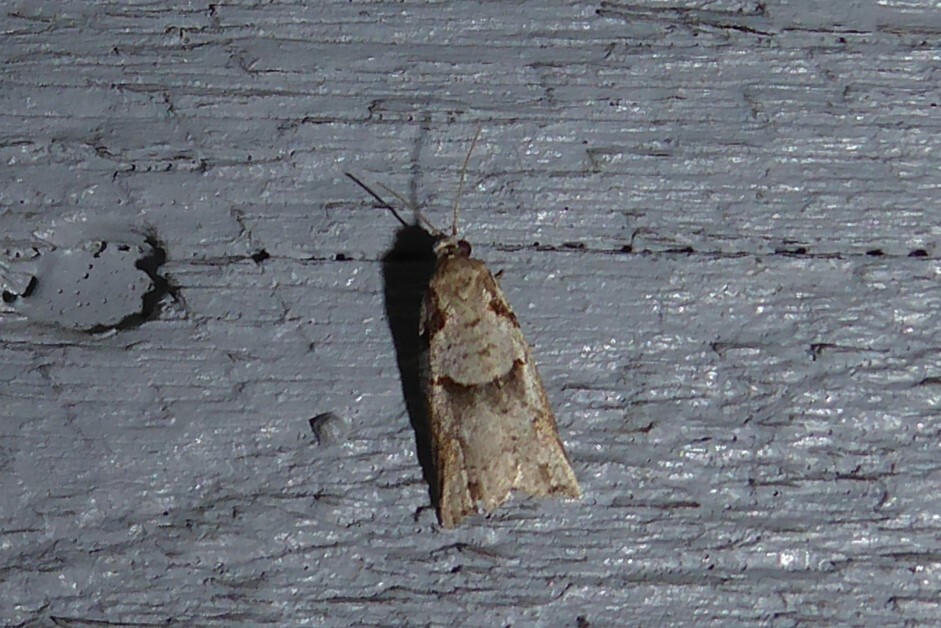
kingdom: Animalia
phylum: Arthropoda
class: Insecta
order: Lepidoptera
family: Tortricidae
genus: Harmologa
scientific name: Harmologa amplexana
